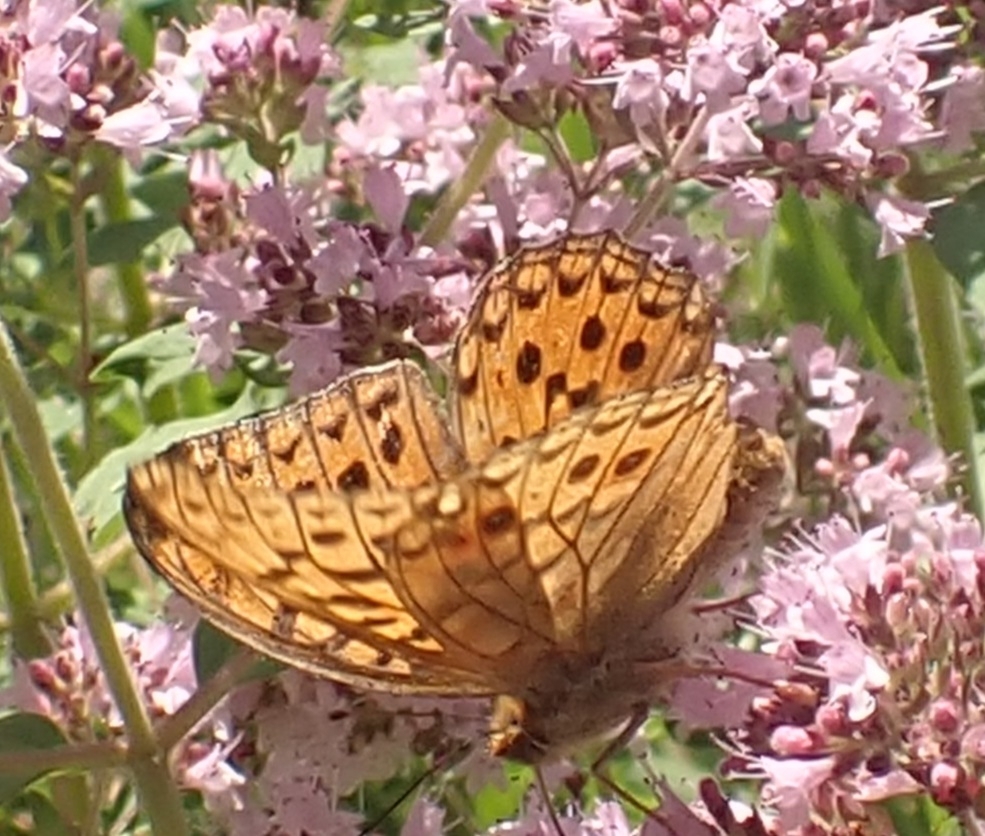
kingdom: Animalia
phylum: Arthropoda
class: Insecta
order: Lepidoptera
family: Nymphalidae
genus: Fabriciana
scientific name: Fabriciana adippe
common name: High brown fritillary
